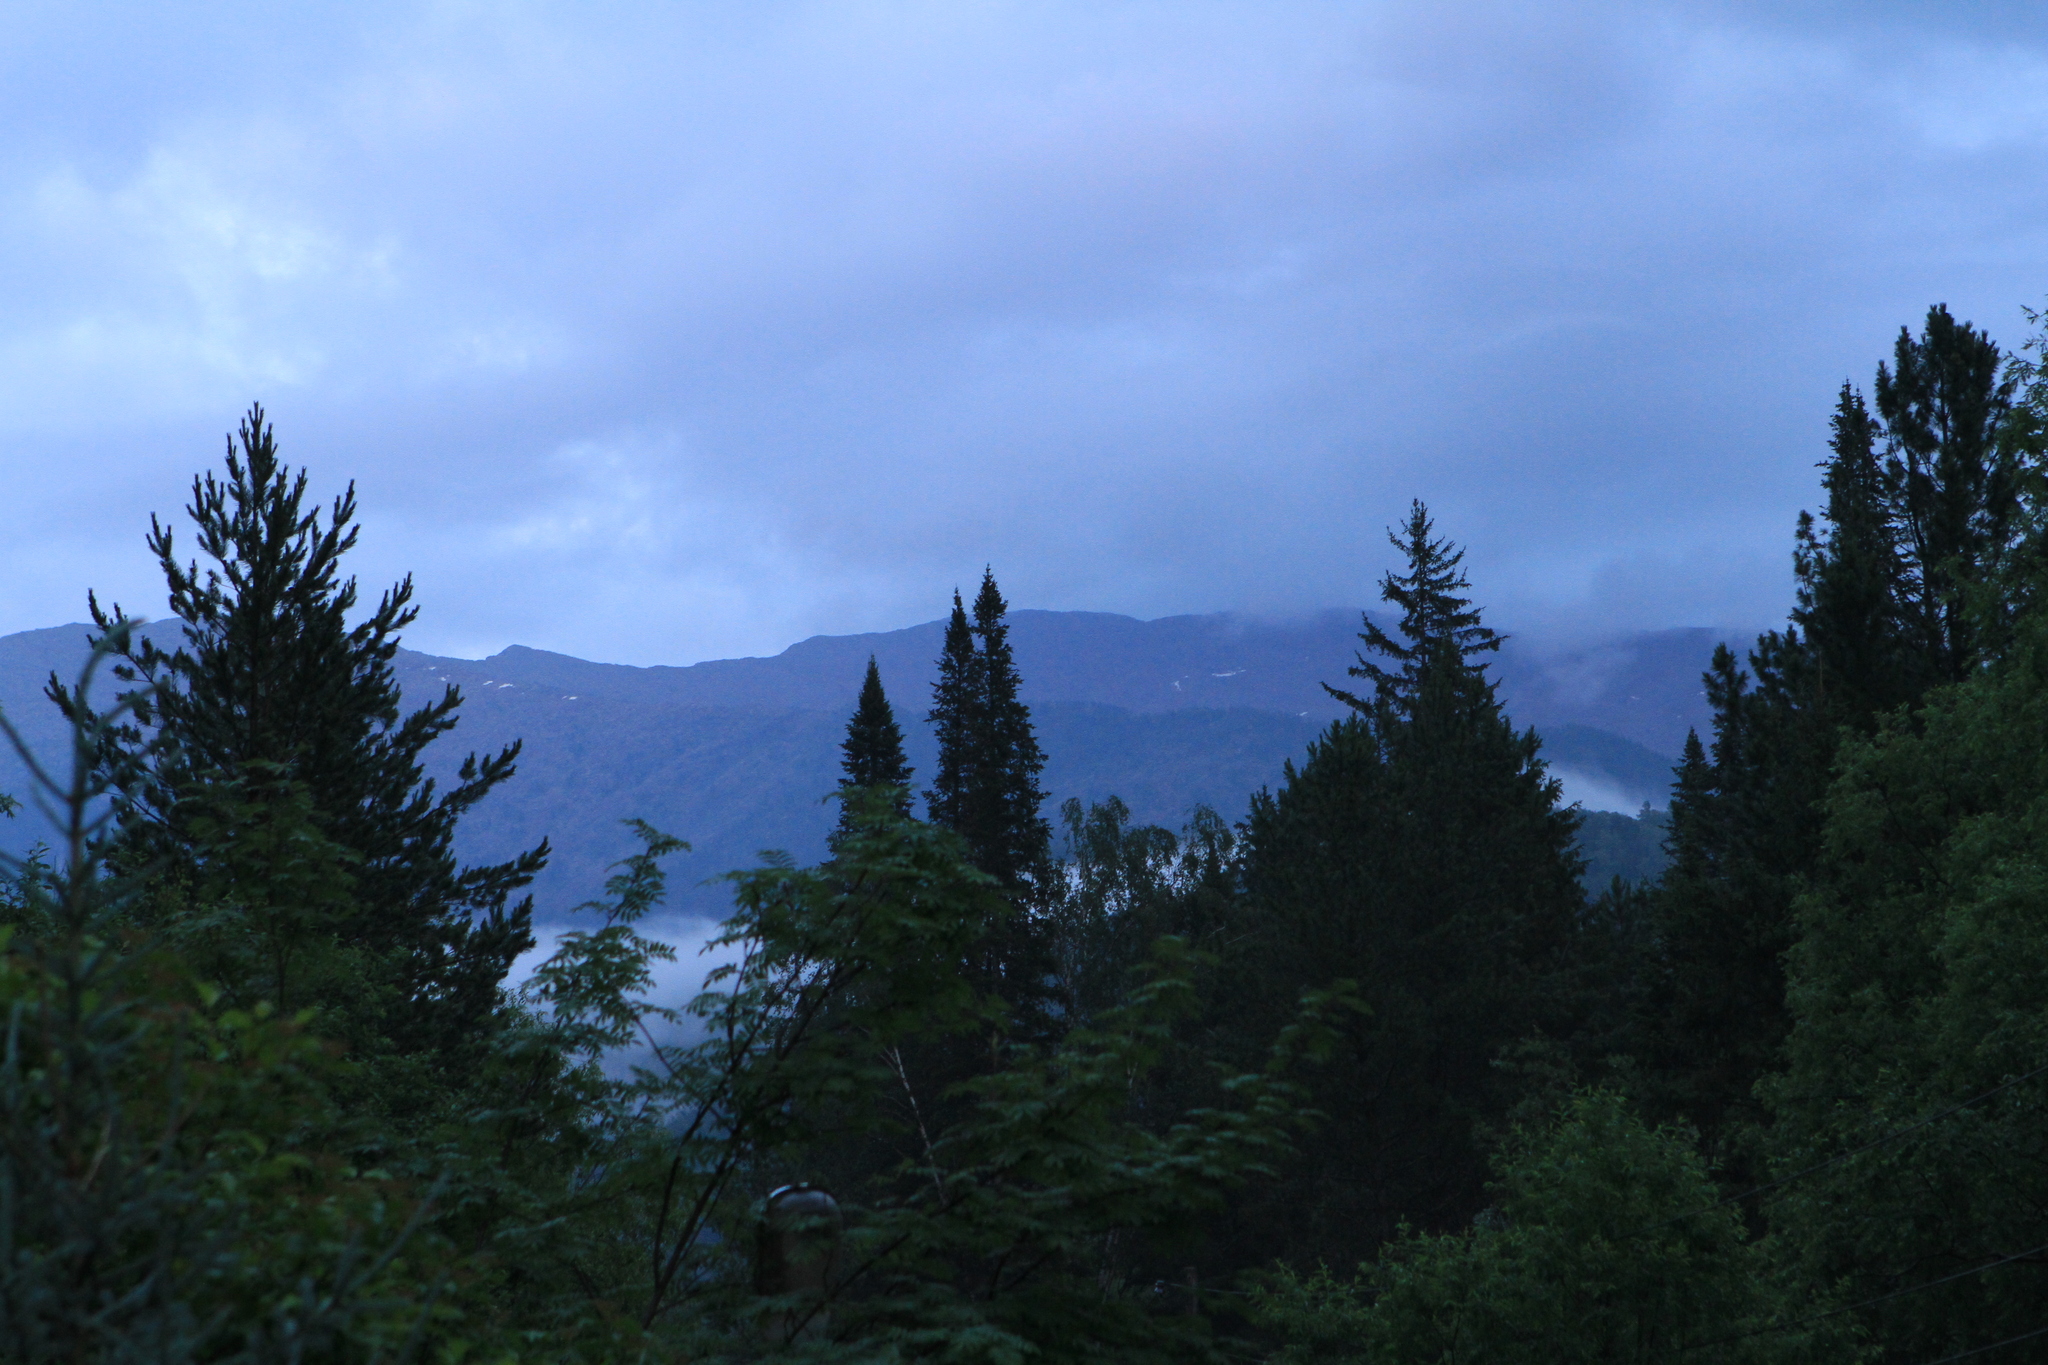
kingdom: Plantae
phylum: Tracheophyta
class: Pinopsida
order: Pinales
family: Pinaceae
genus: Abies
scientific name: Abies sibirica
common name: Siberian fir
